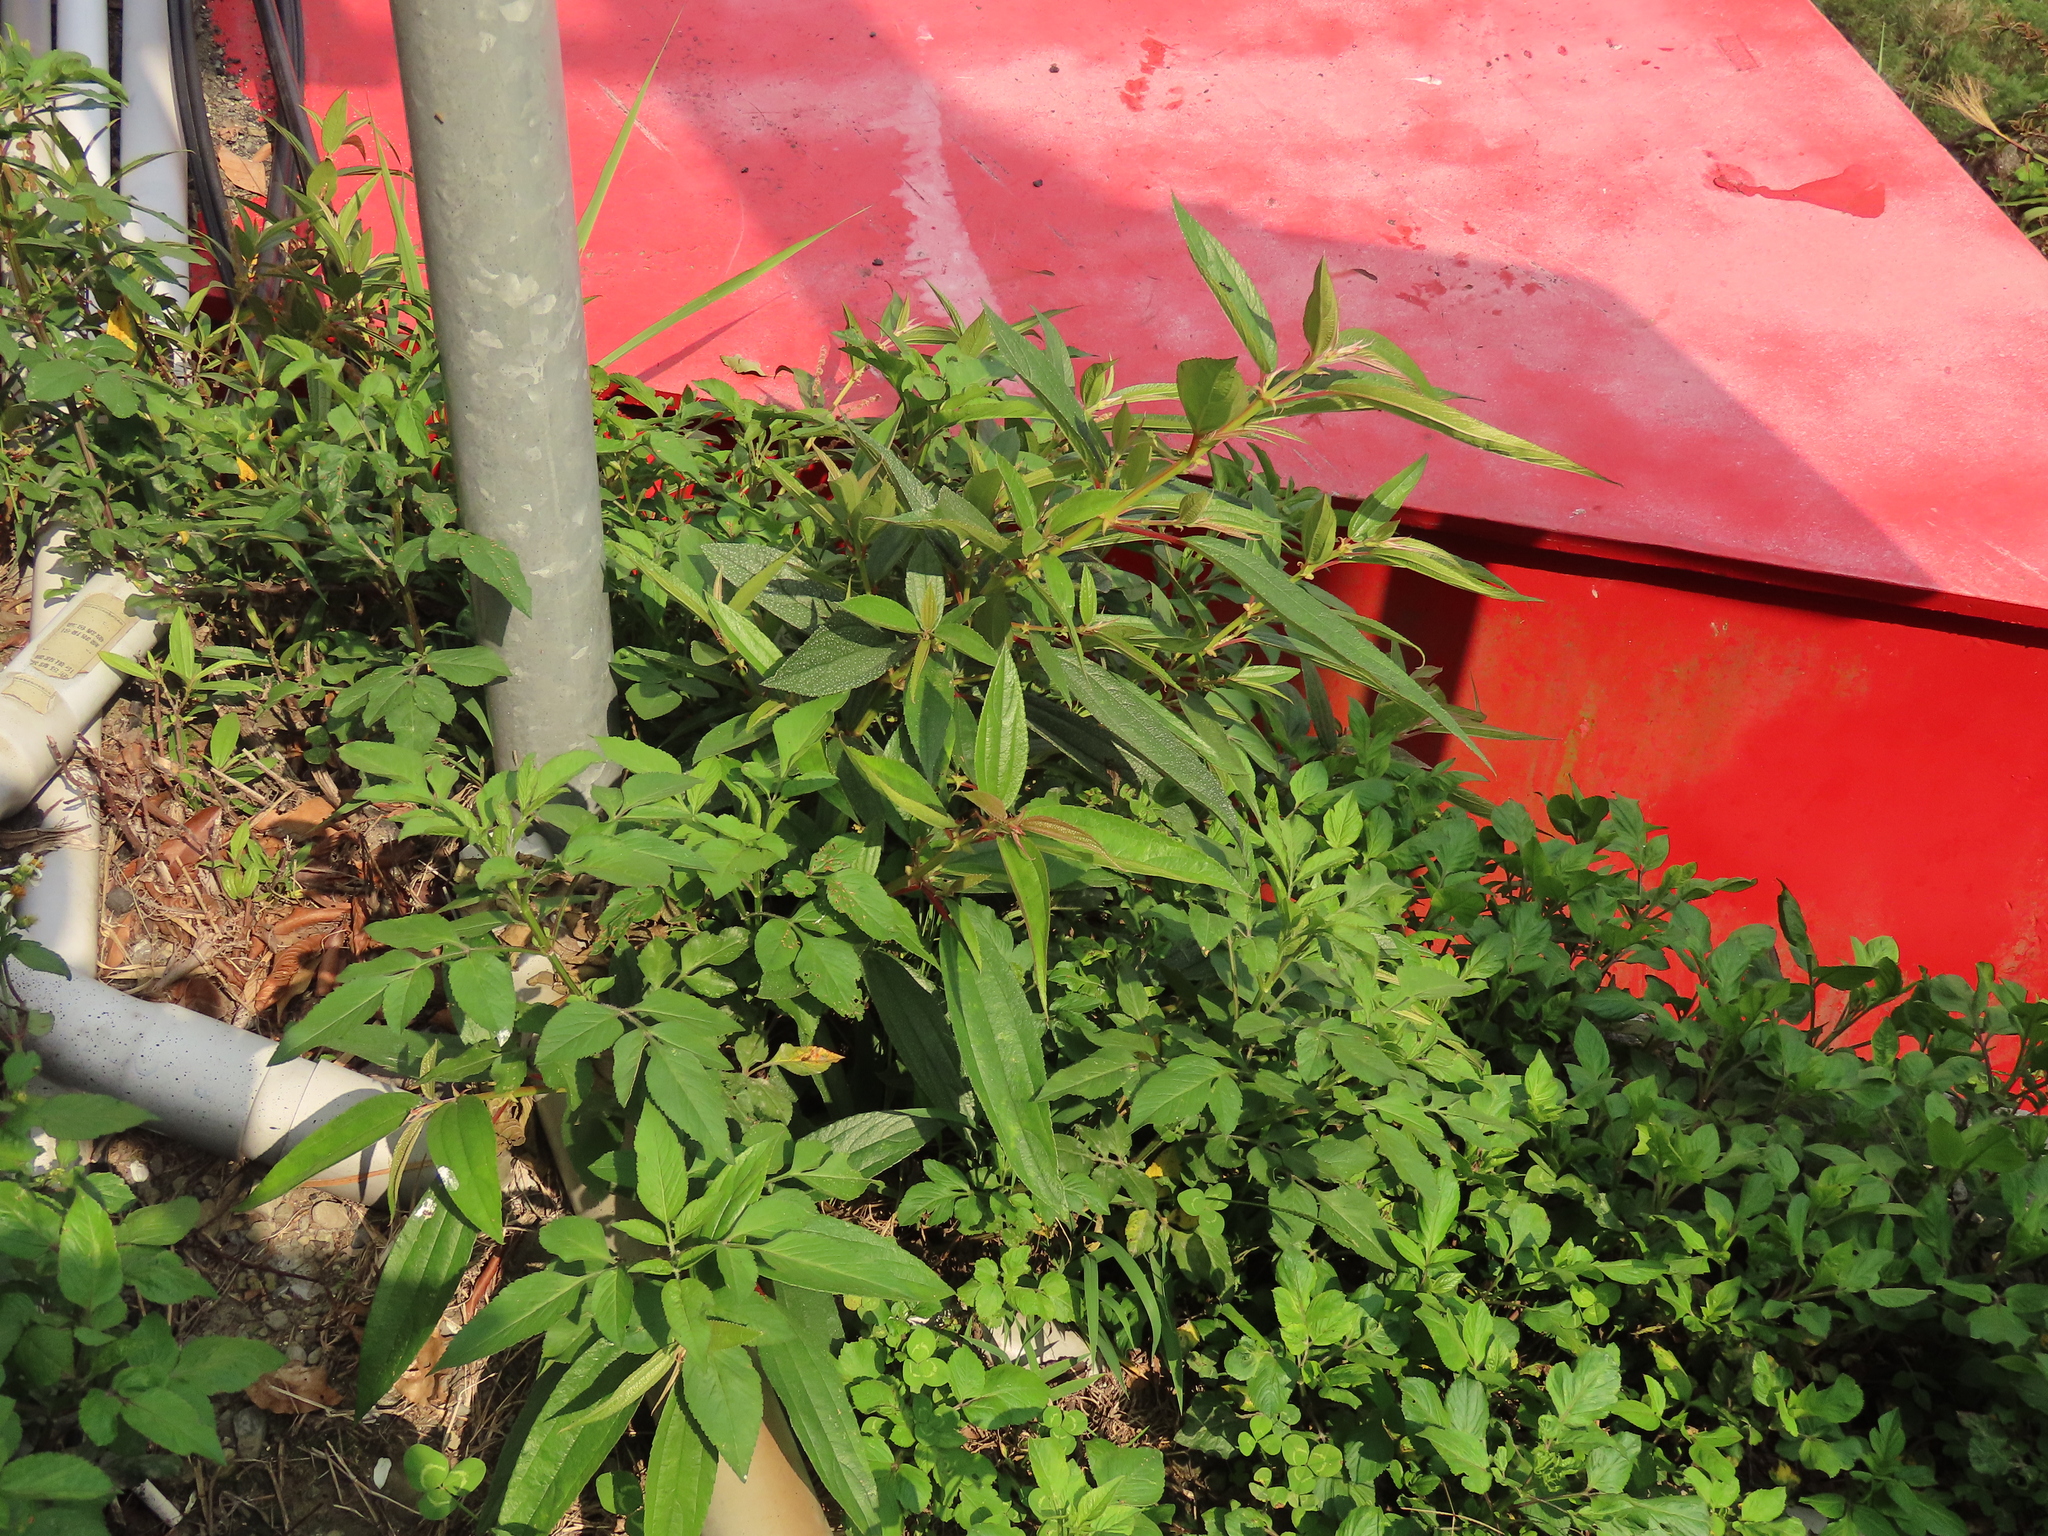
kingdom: Plantae
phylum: Tracheophyta
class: Magnoliopsida
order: Rosales
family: Urticaceae
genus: Boehmeria
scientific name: Boehmeria densiflora
